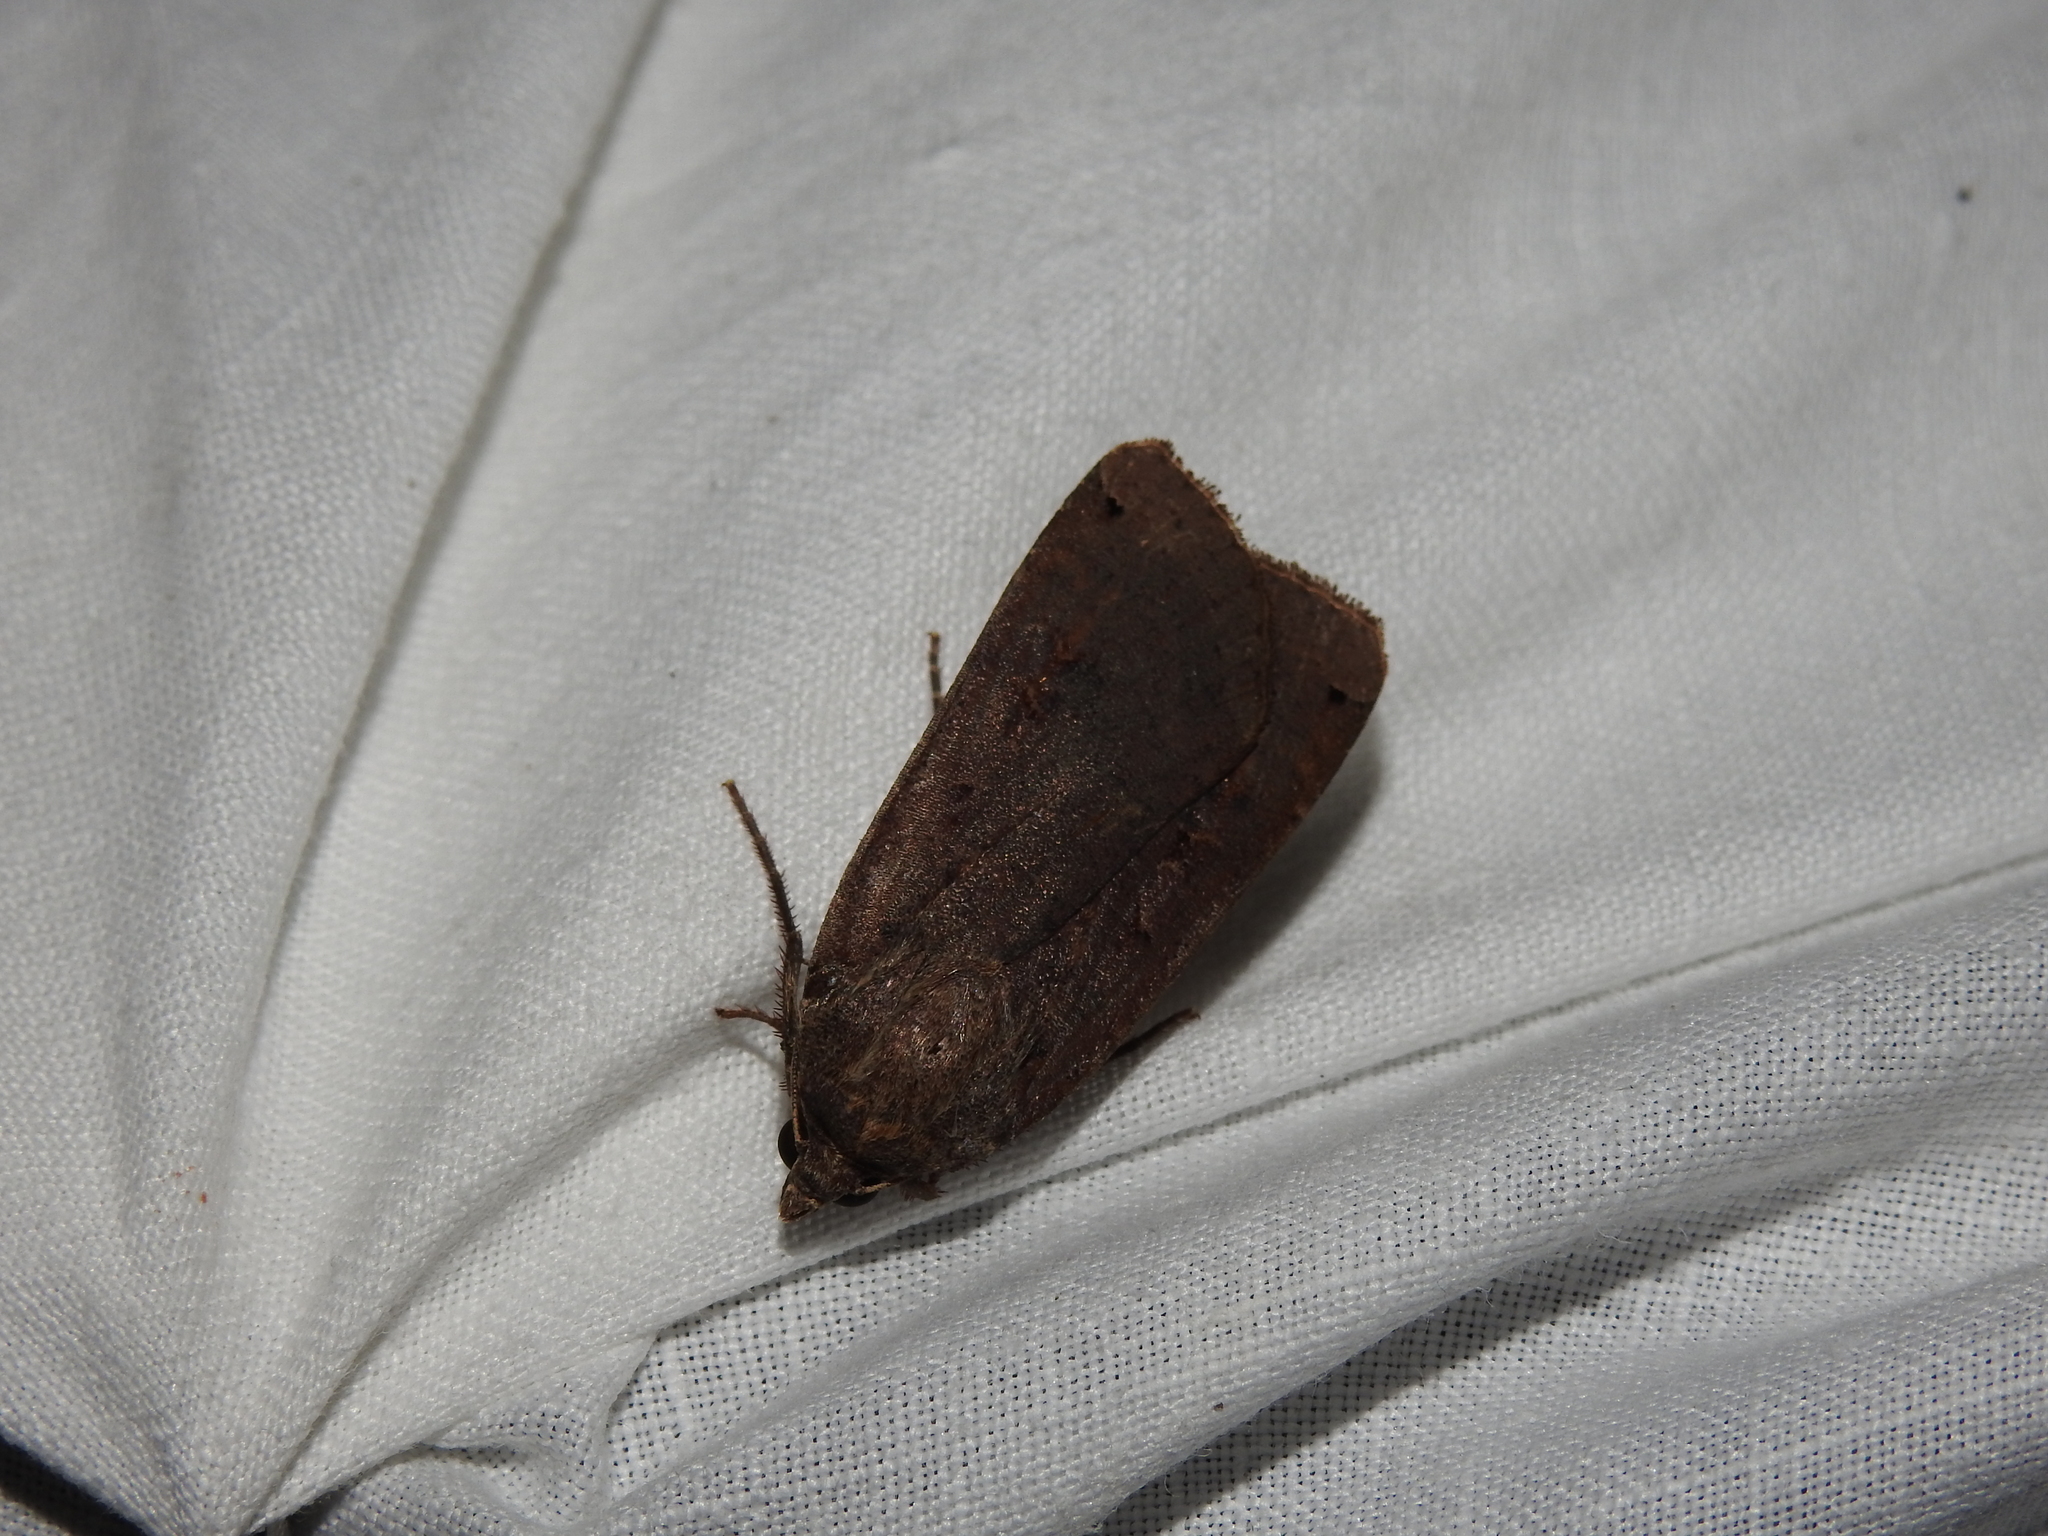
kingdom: Animalia
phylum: Arthropoda
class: Insecta
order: Lepidoptera
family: Noctuidae
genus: Noctua
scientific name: Noctua pronuba
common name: Large yellow underwing
